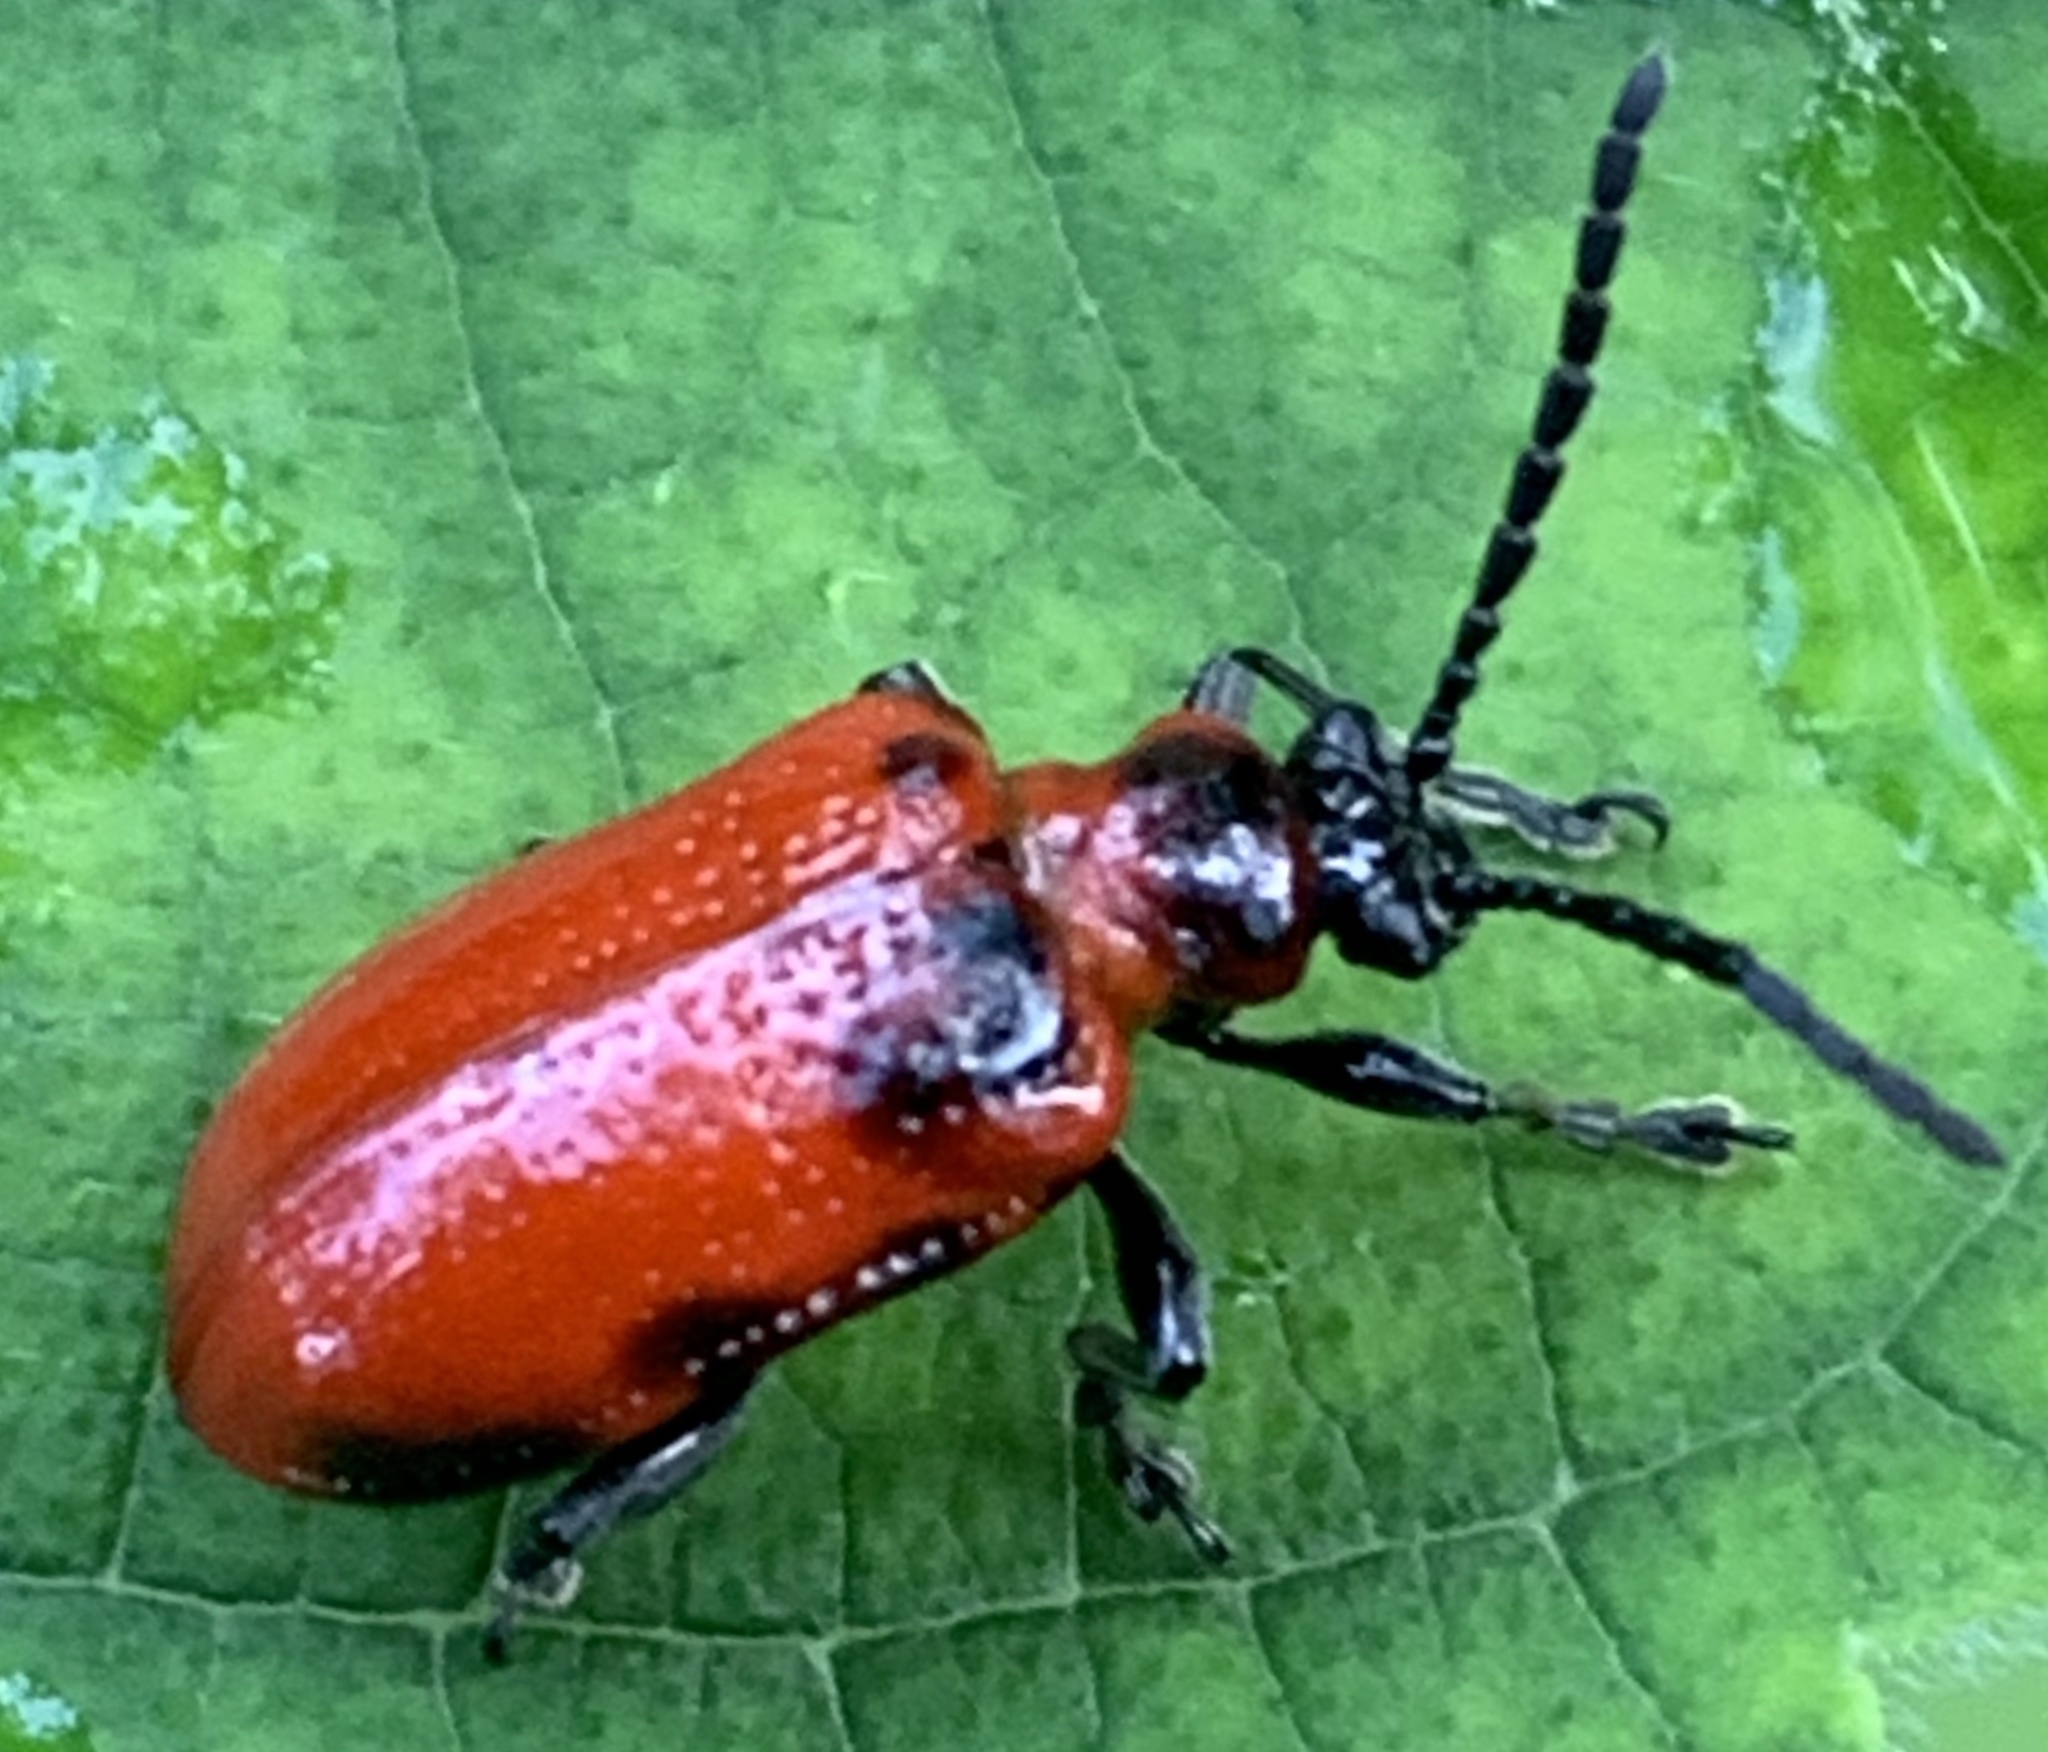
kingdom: Animalia
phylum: Arthropoda
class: Insecta
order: Coleoptera
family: Chrysomelidae
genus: Lilioceris
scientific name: Lilioceris lilii
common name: Lily beetle
